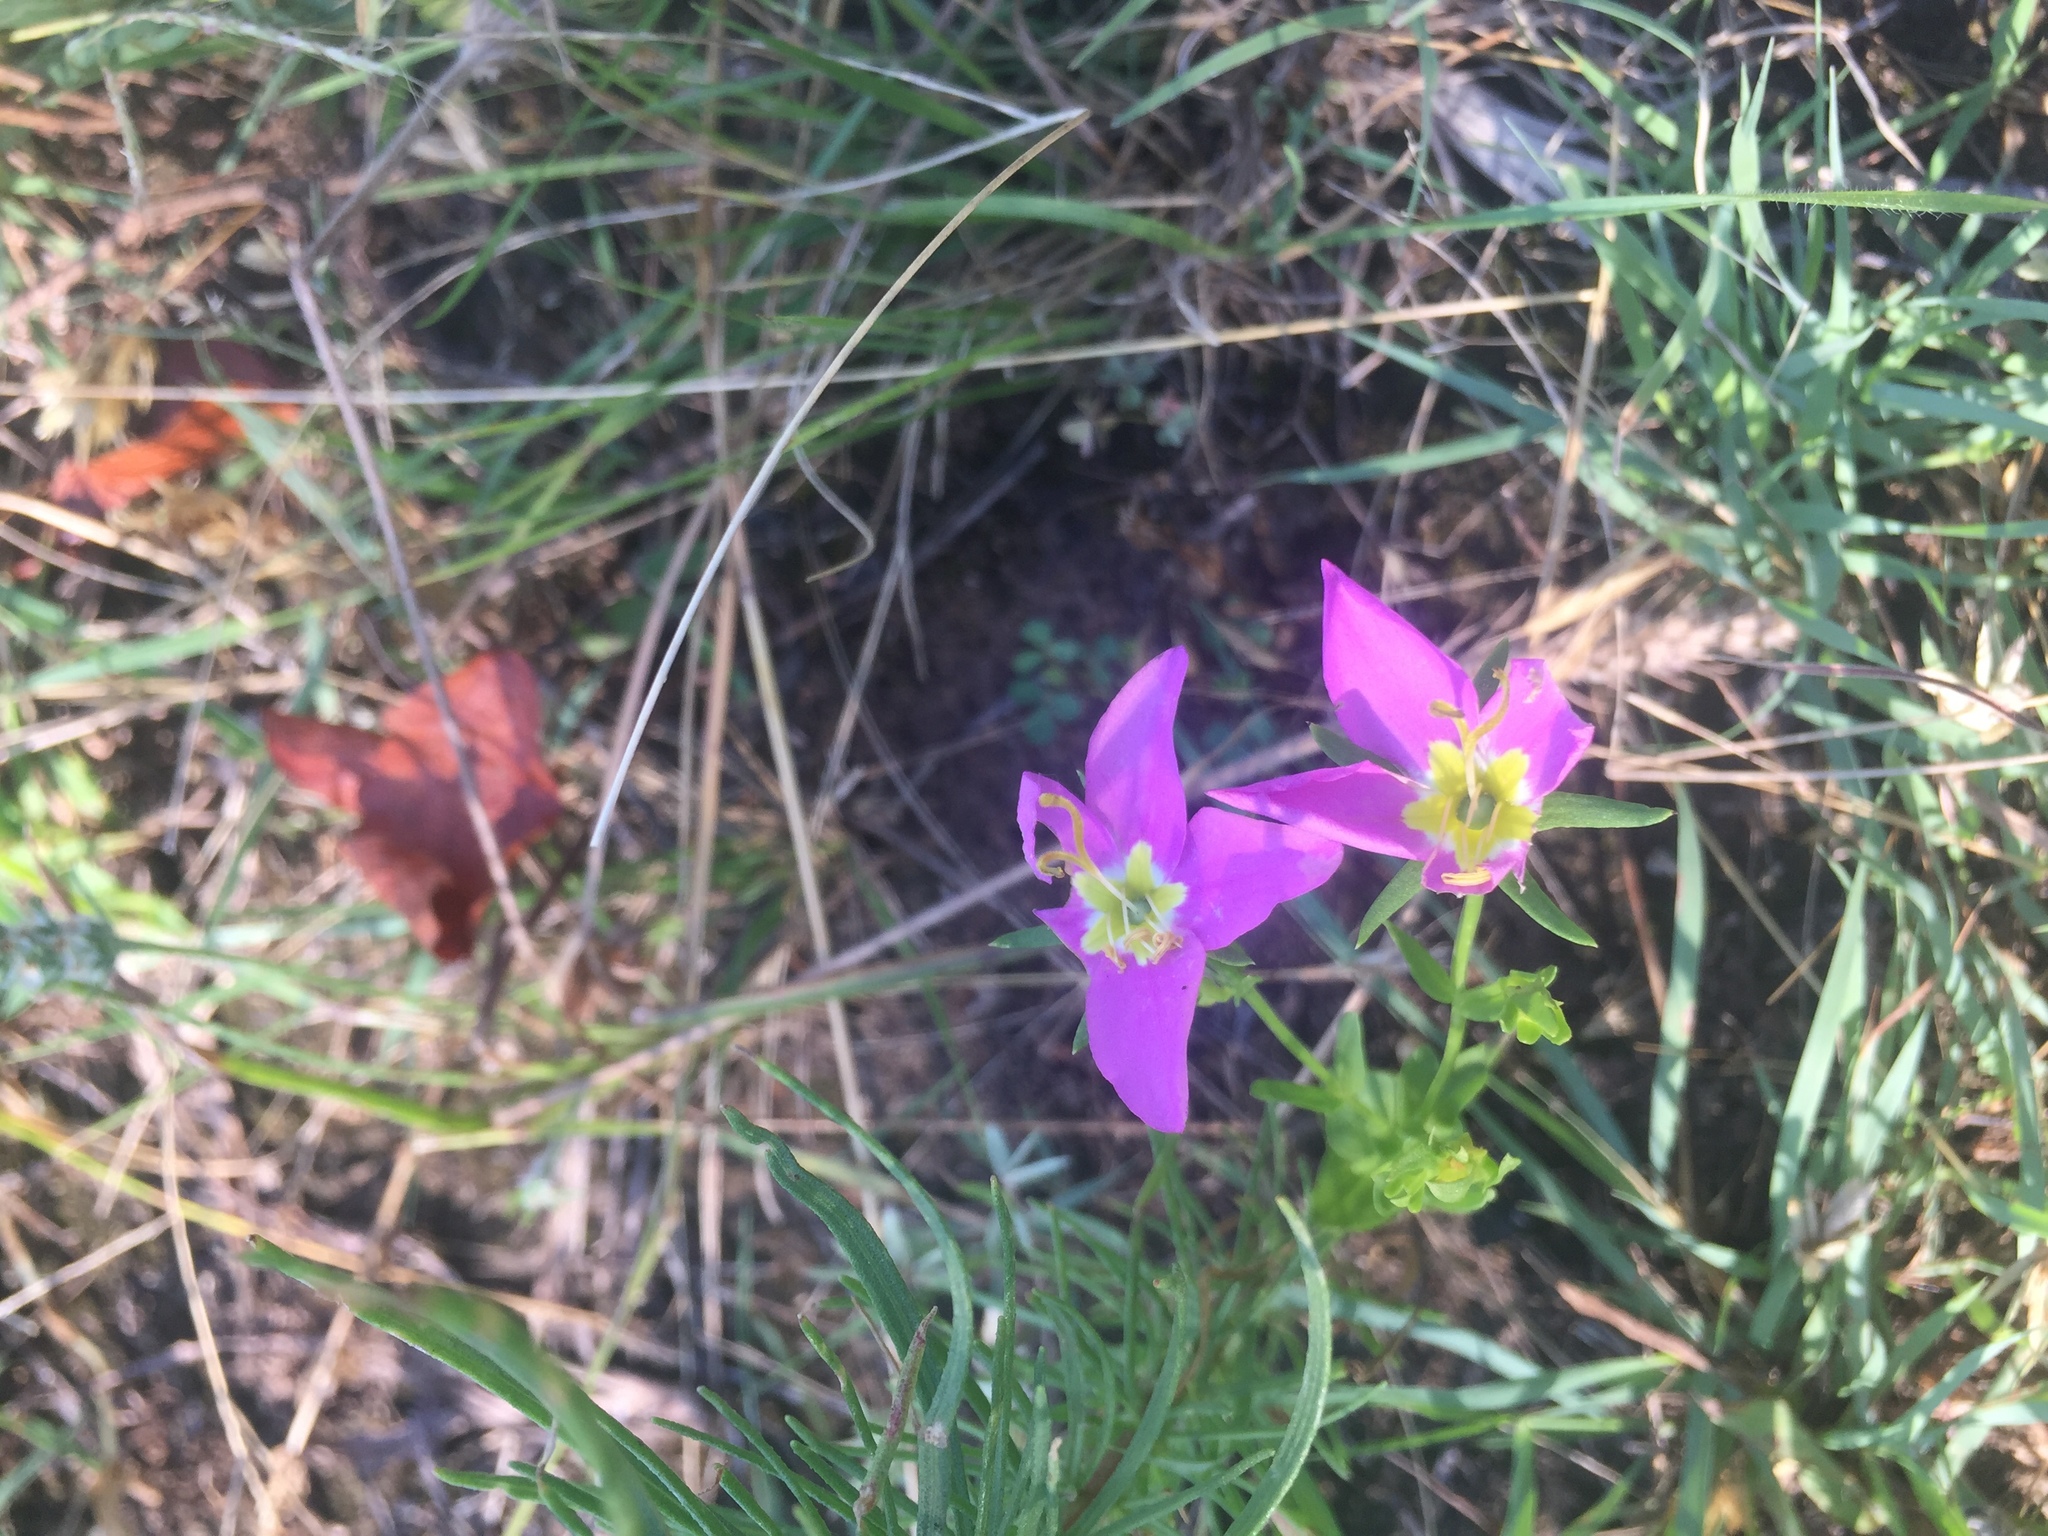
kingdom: Plantae
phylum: Tracheophyta
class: Magnoliopsida
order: Gentianales
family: Gentianaceae
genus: Sabatia
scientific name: Sabatia campestris
